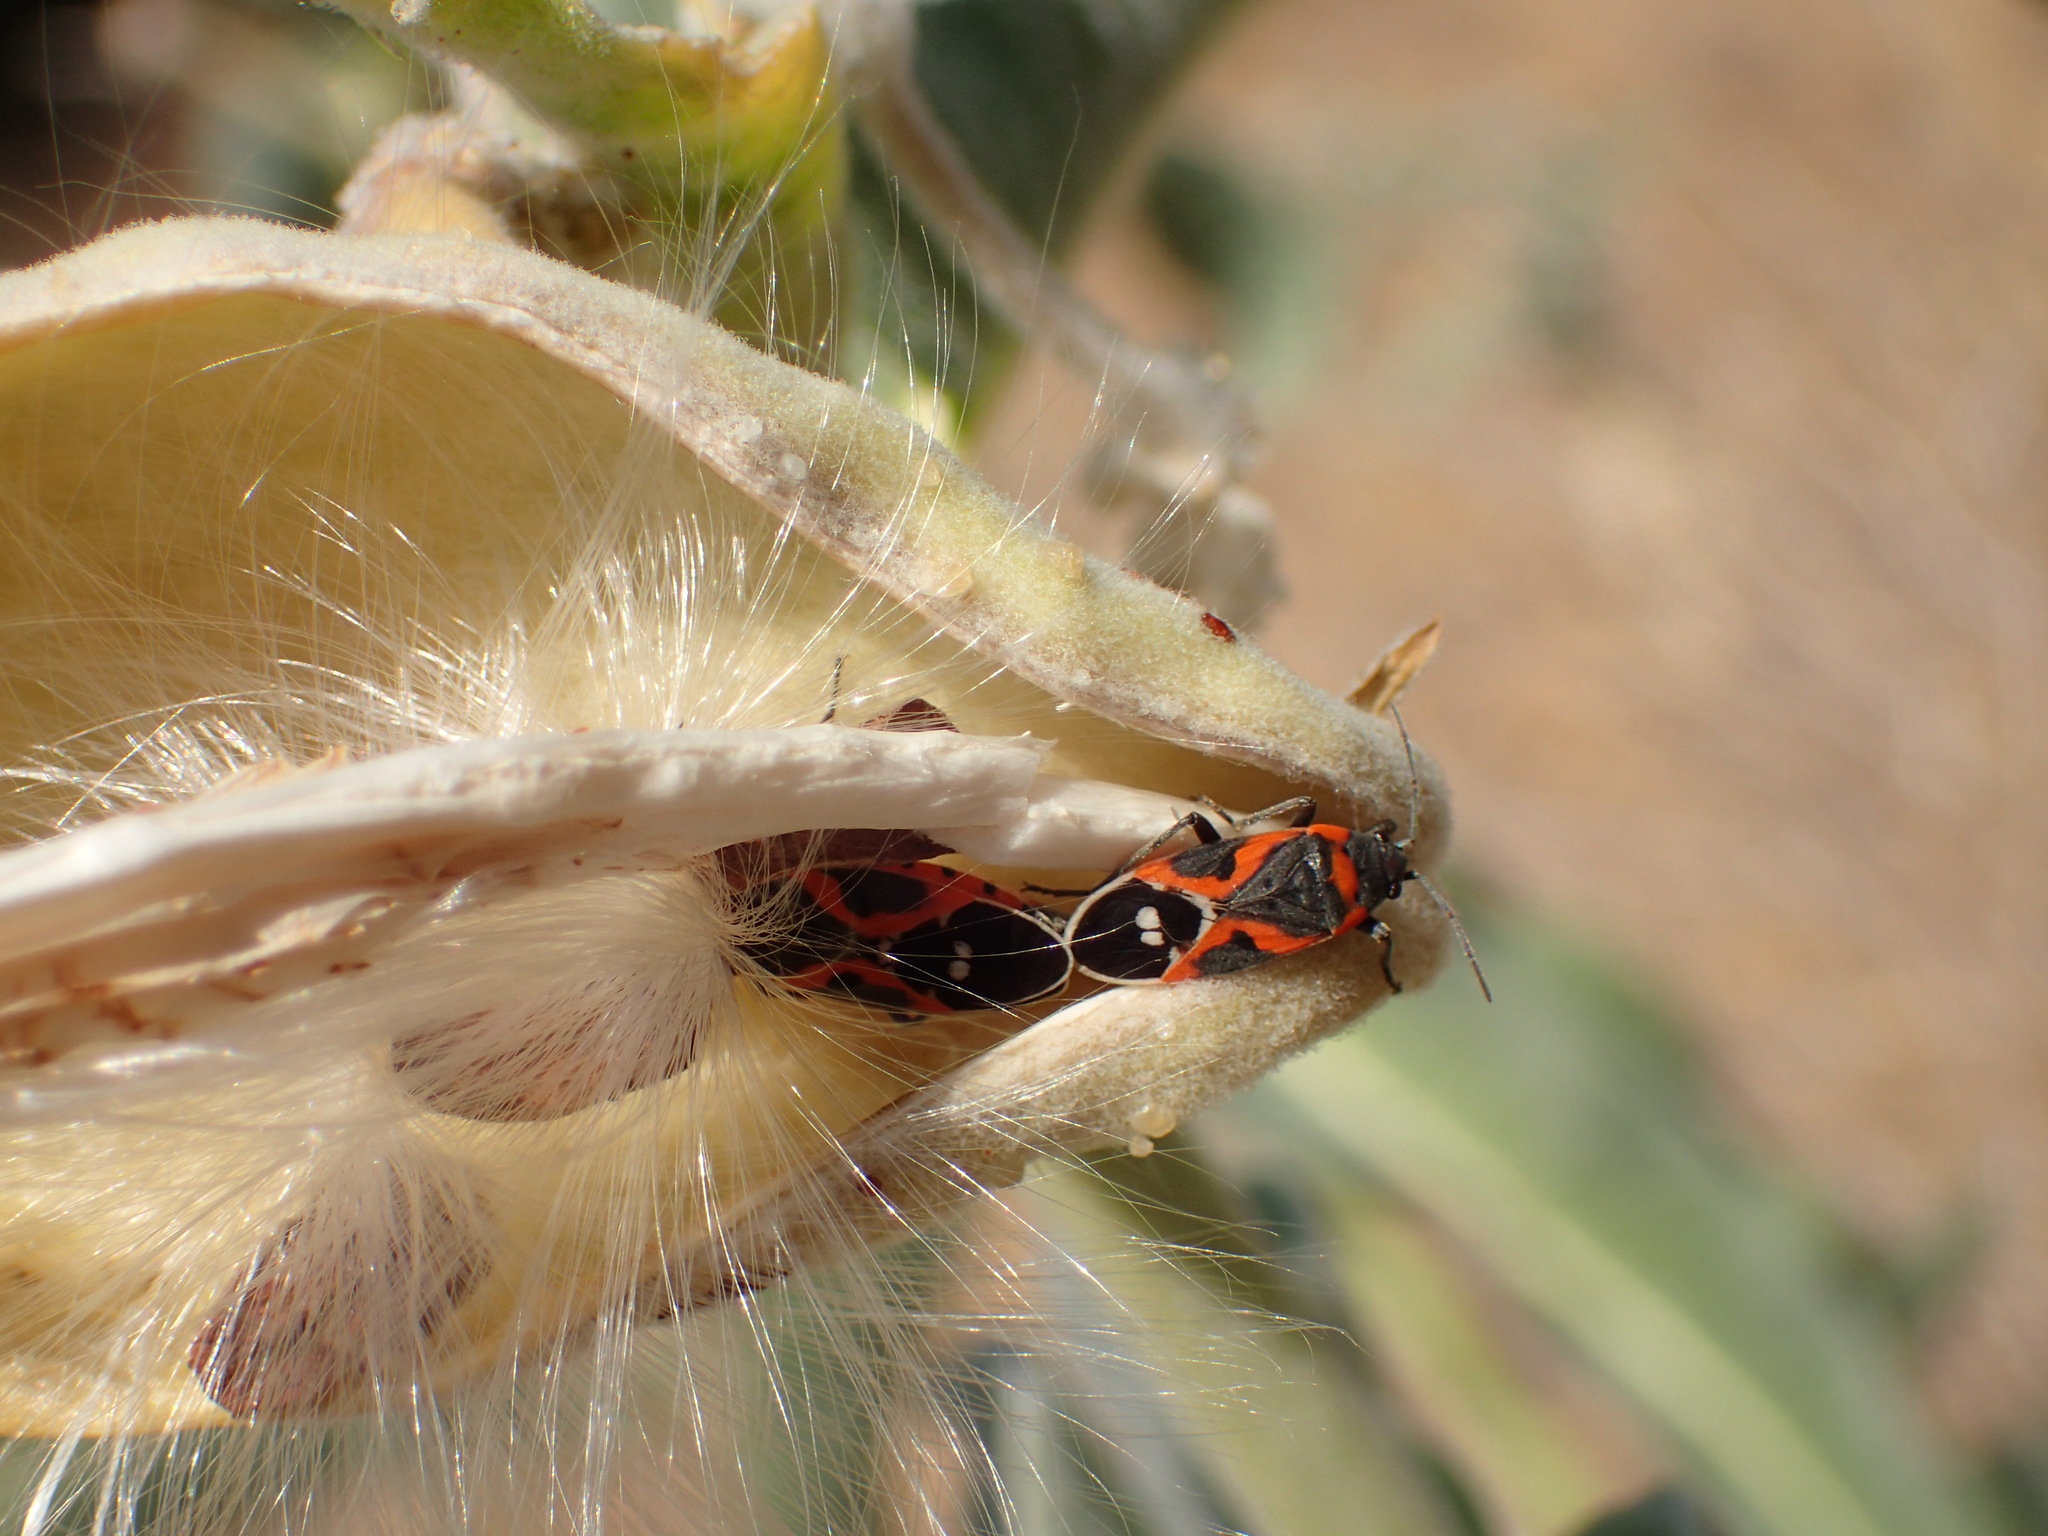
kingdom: Plantae
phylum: Tracheophyta
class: Magnoliopsida
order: Gentianales
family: Apocynaceae
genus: Asclepias
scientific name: Asclepias eriocarpa
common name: Indian milkweed
